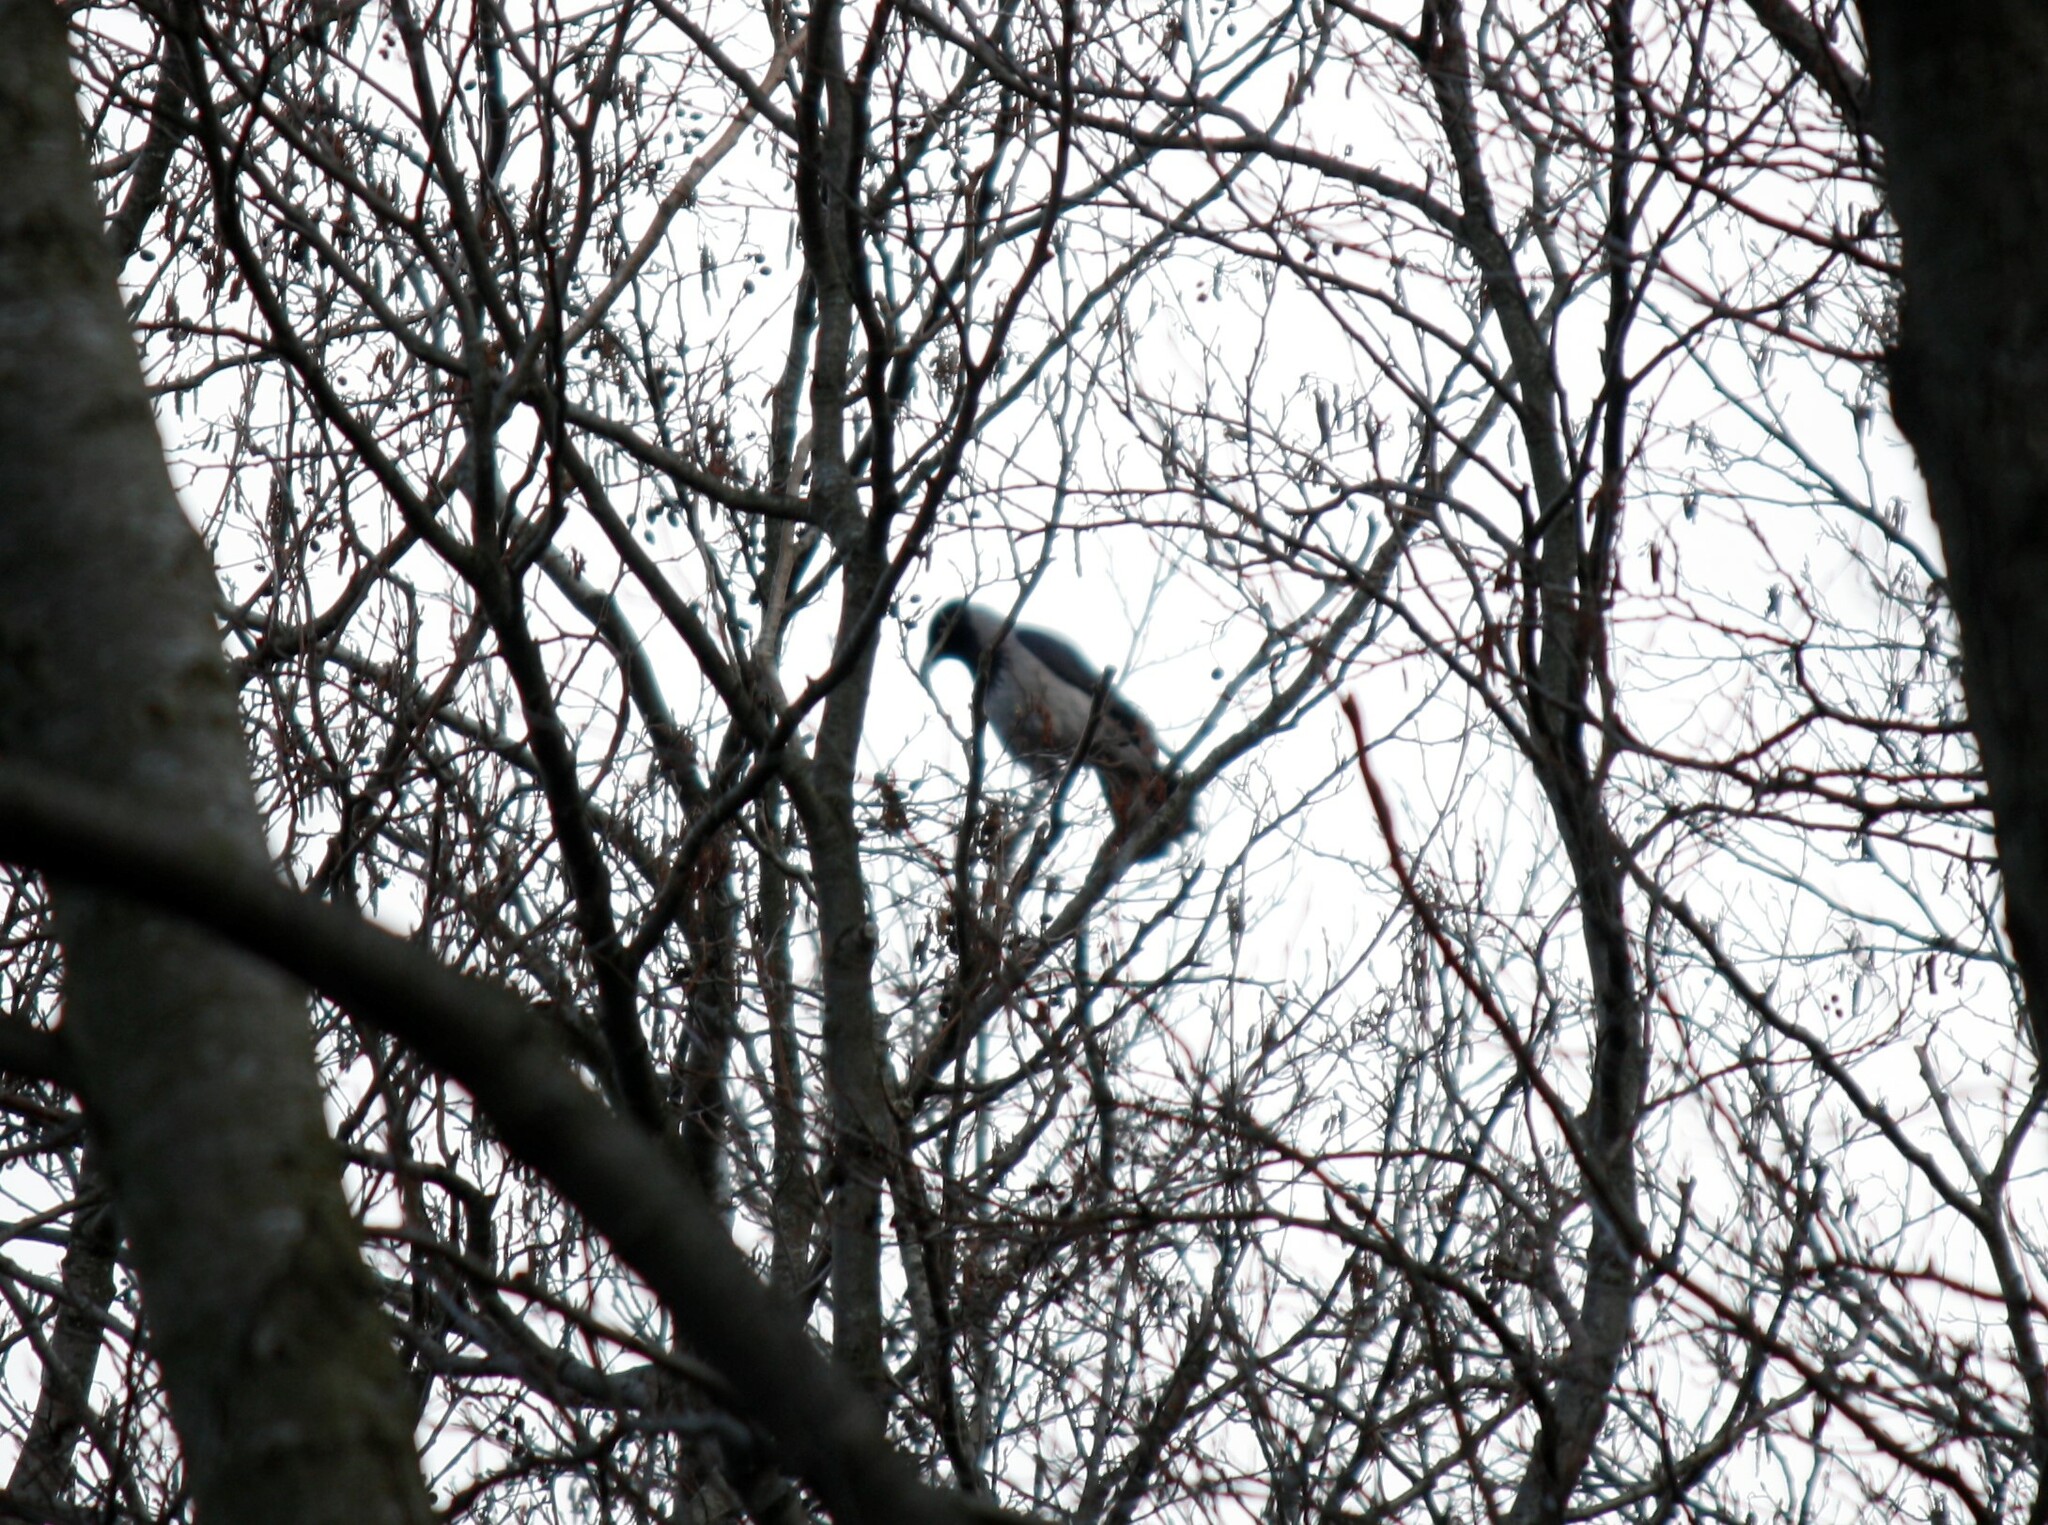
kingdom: Animalia
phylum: Chordata
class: Aves
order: Passeriformes
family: Corvidae
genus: Corvus
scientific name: Corvus cornix
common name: Hooded crow
